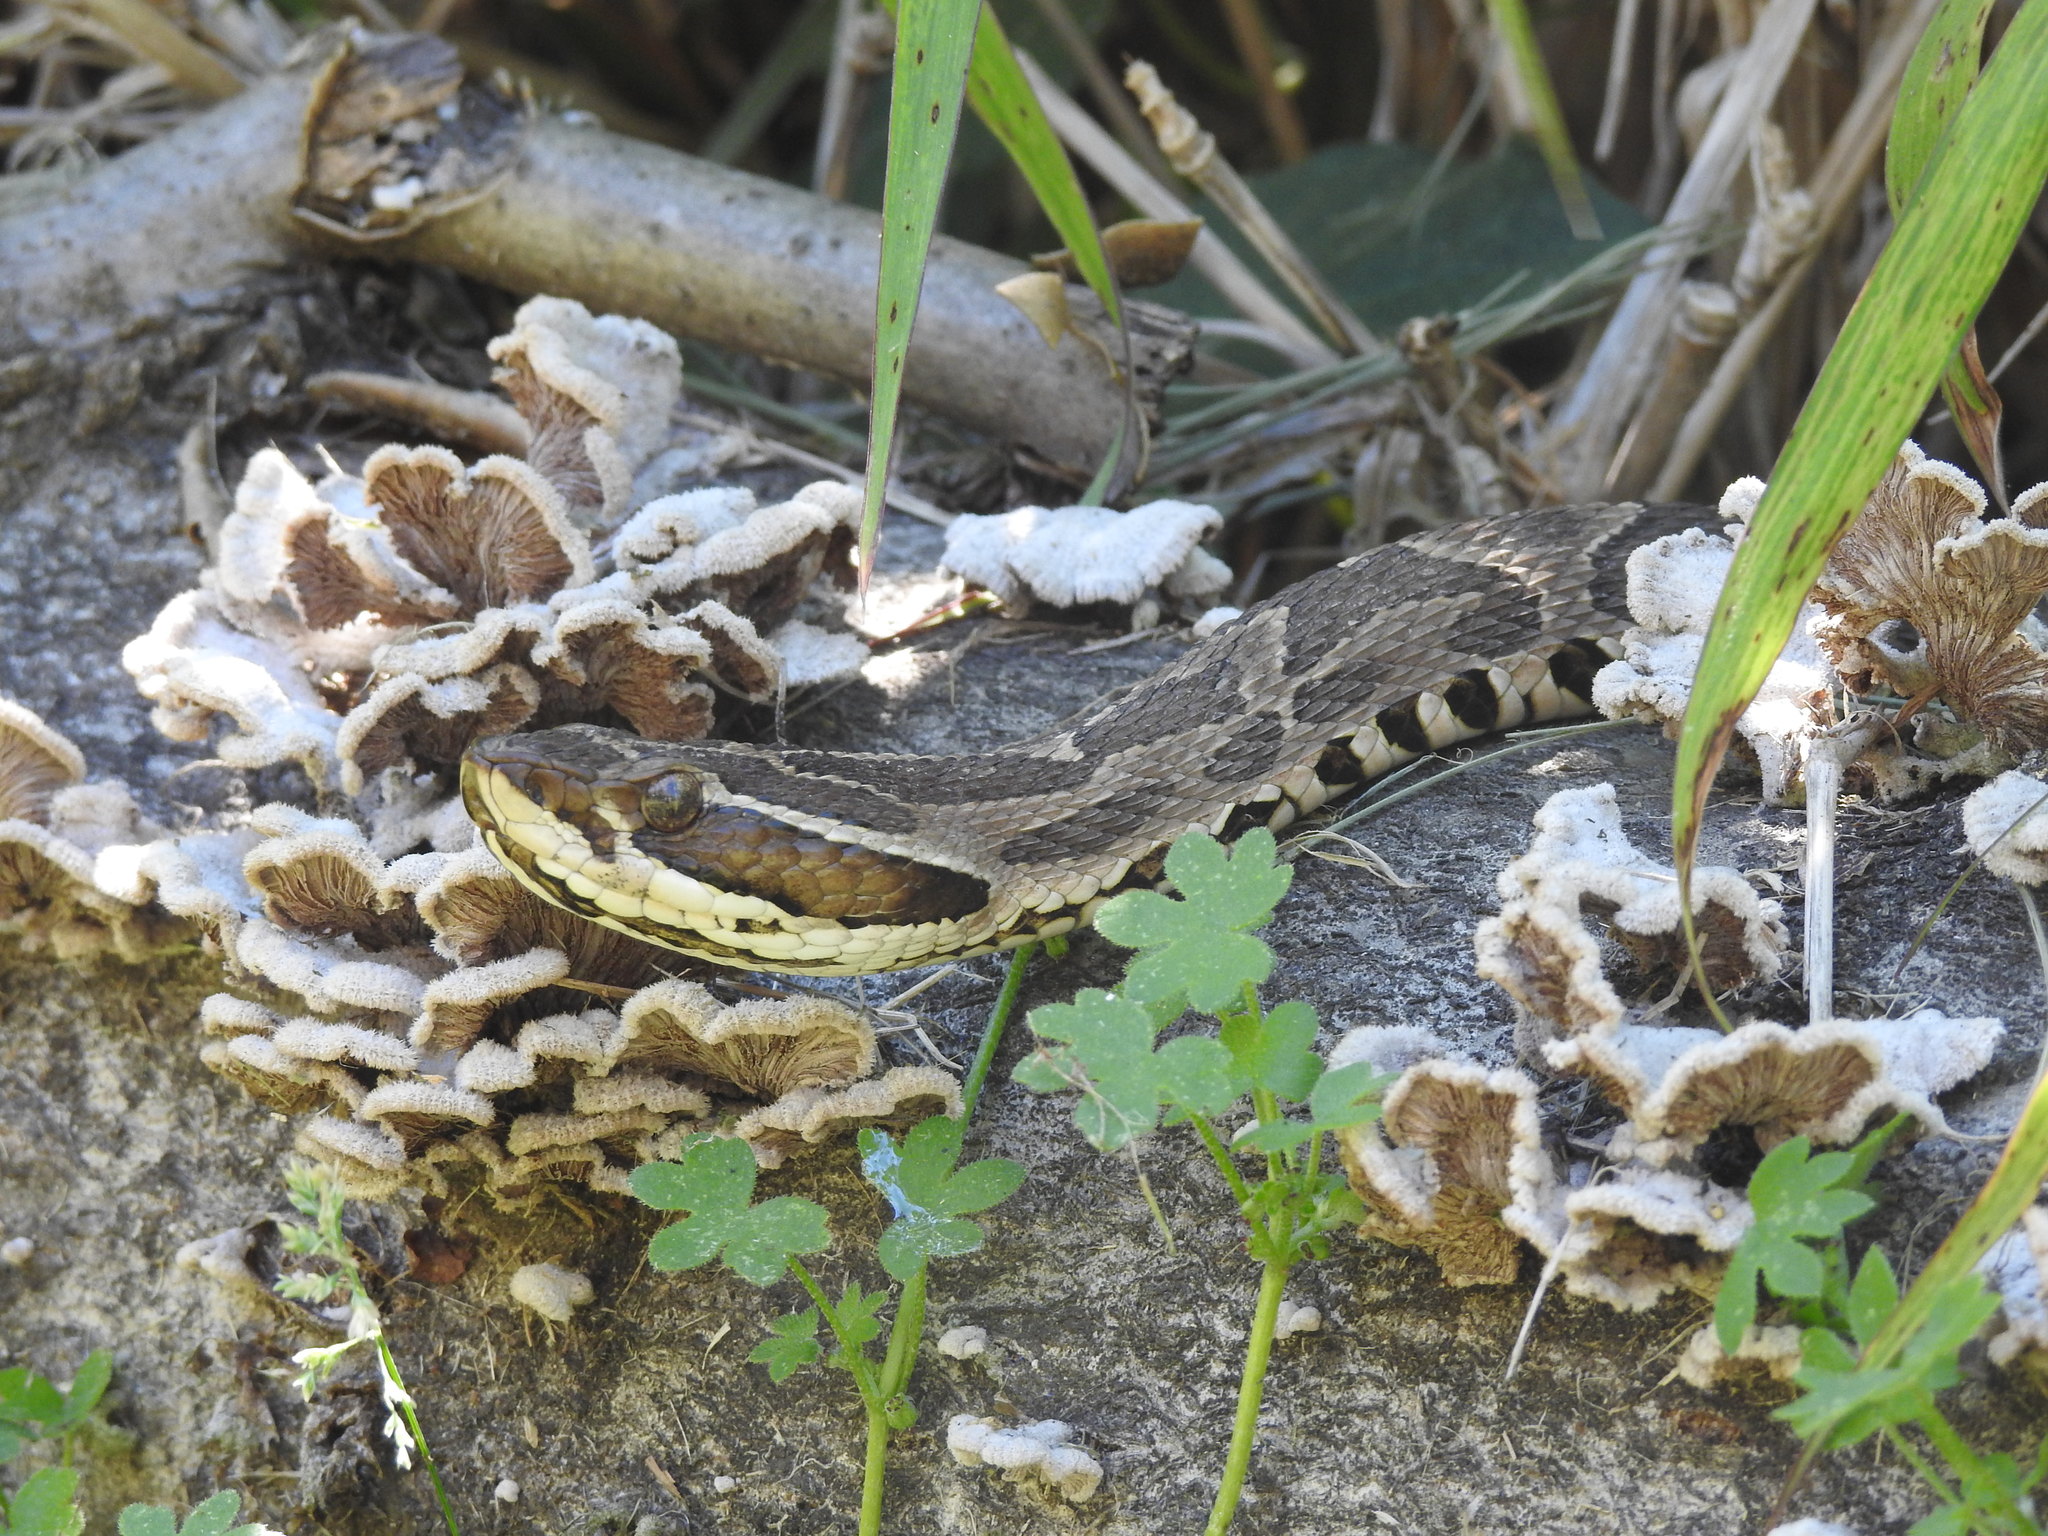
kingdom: Animalia
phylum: Chordata
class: Squamata
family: Viperidae
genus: Bothrops
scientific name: Bothrops alternatus
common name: Urutu
